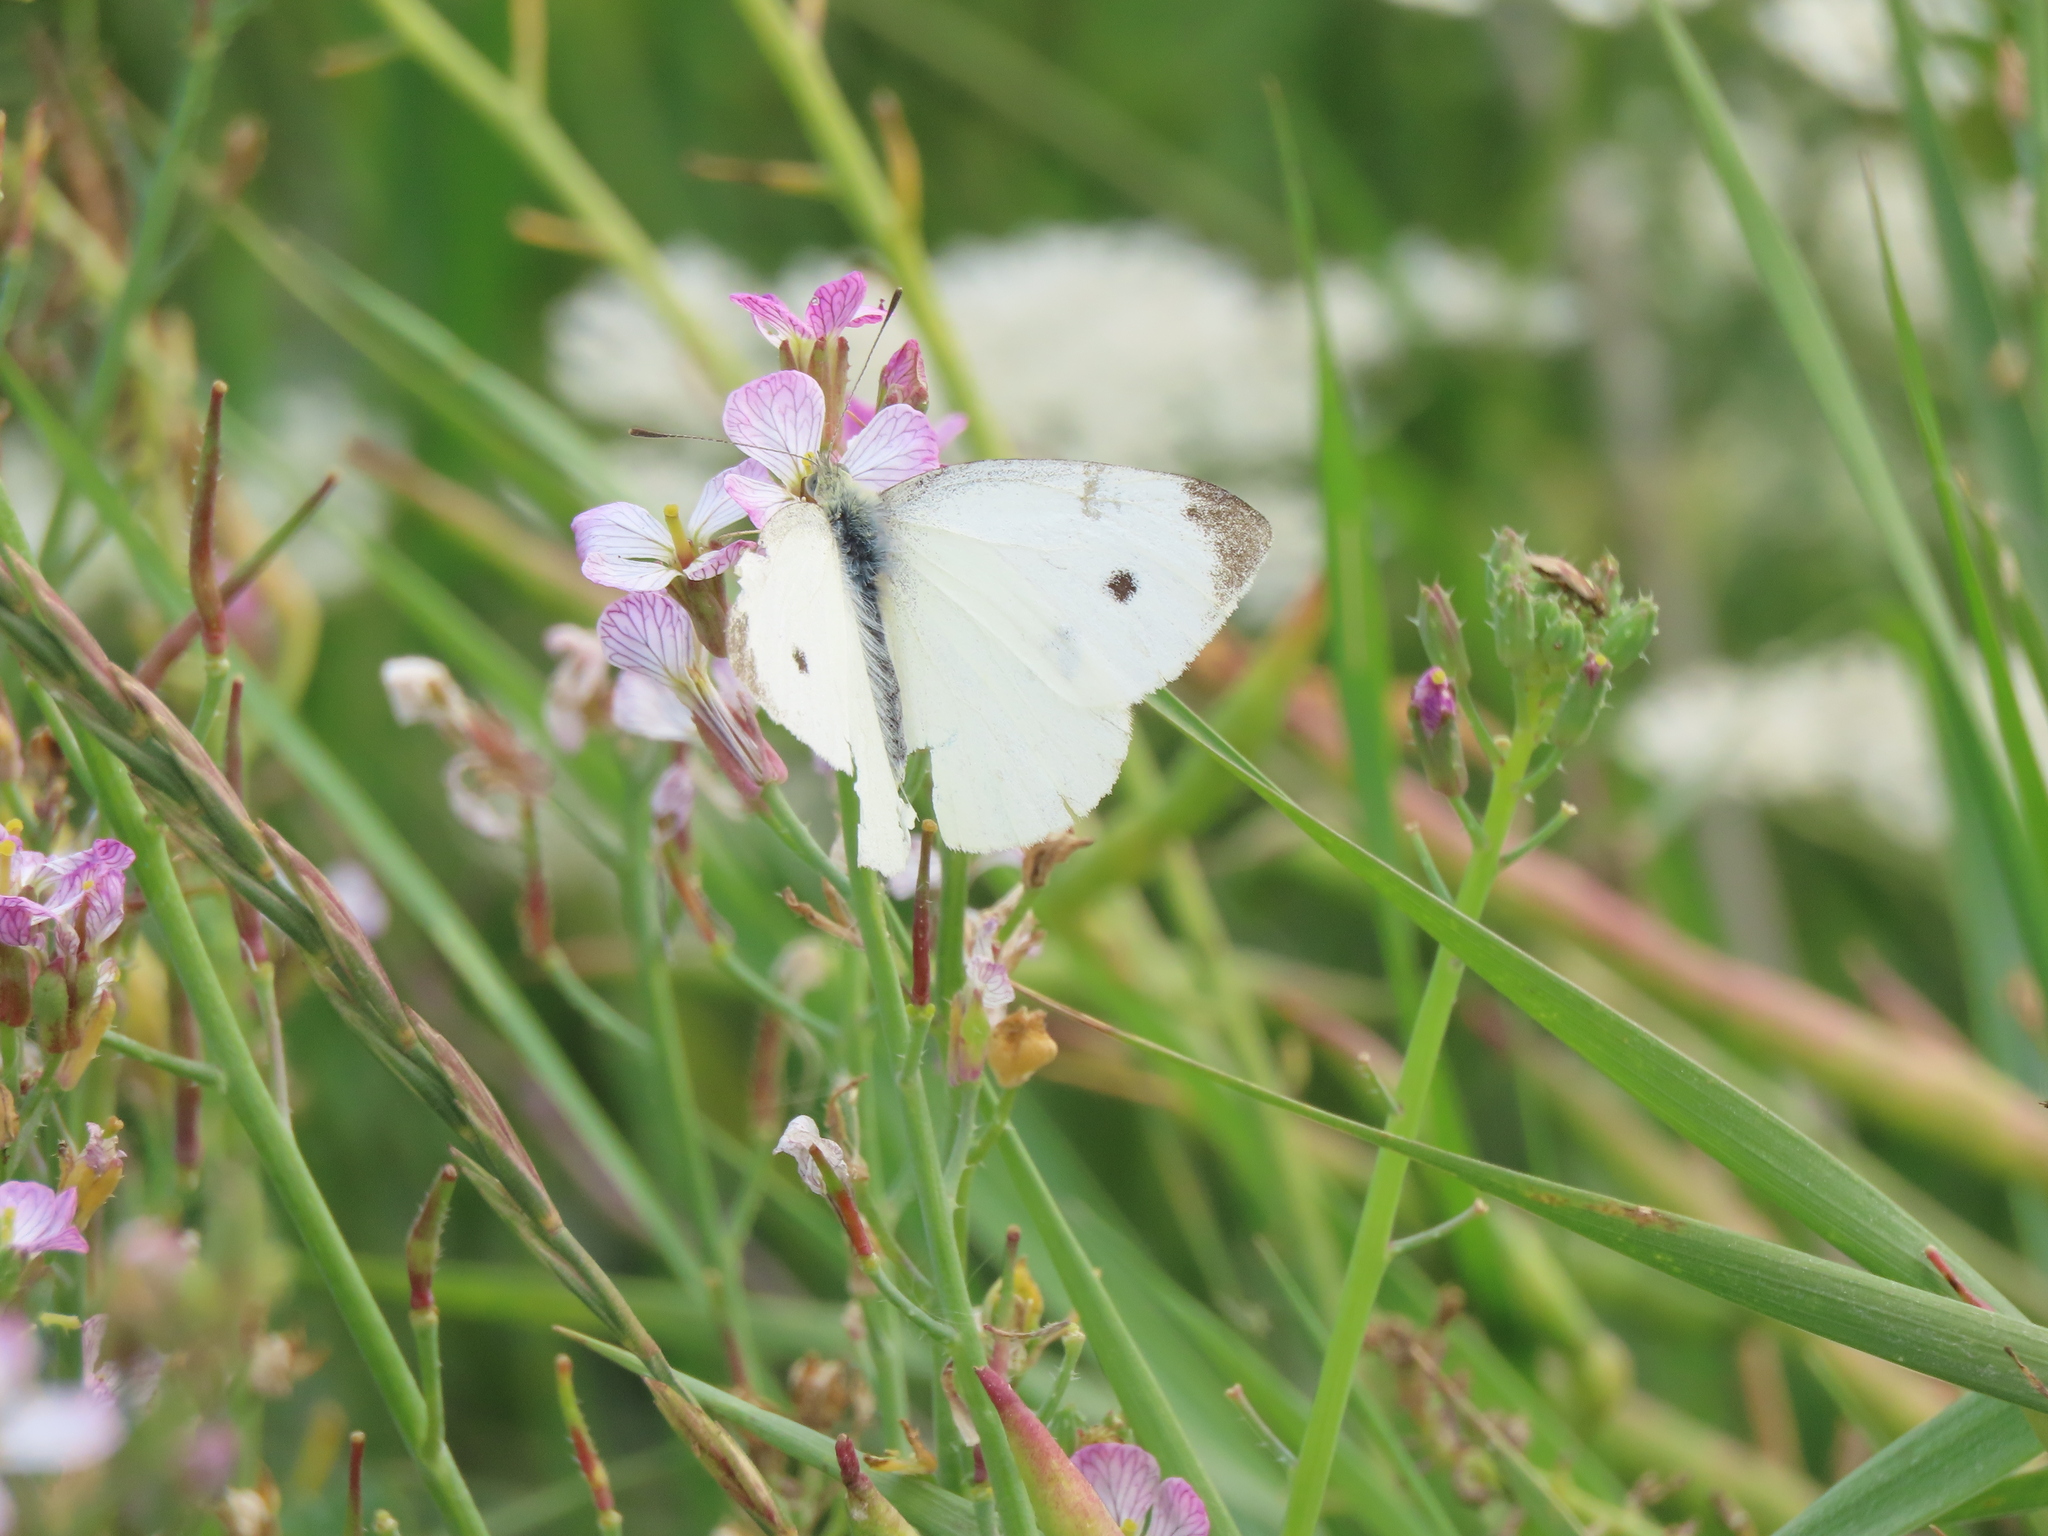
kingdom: Animalia
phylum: Arthropoda
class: Insecta
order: Lepidoptera
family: Pieridae
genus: Pieris
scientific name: Pieris rapae
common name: Small white
